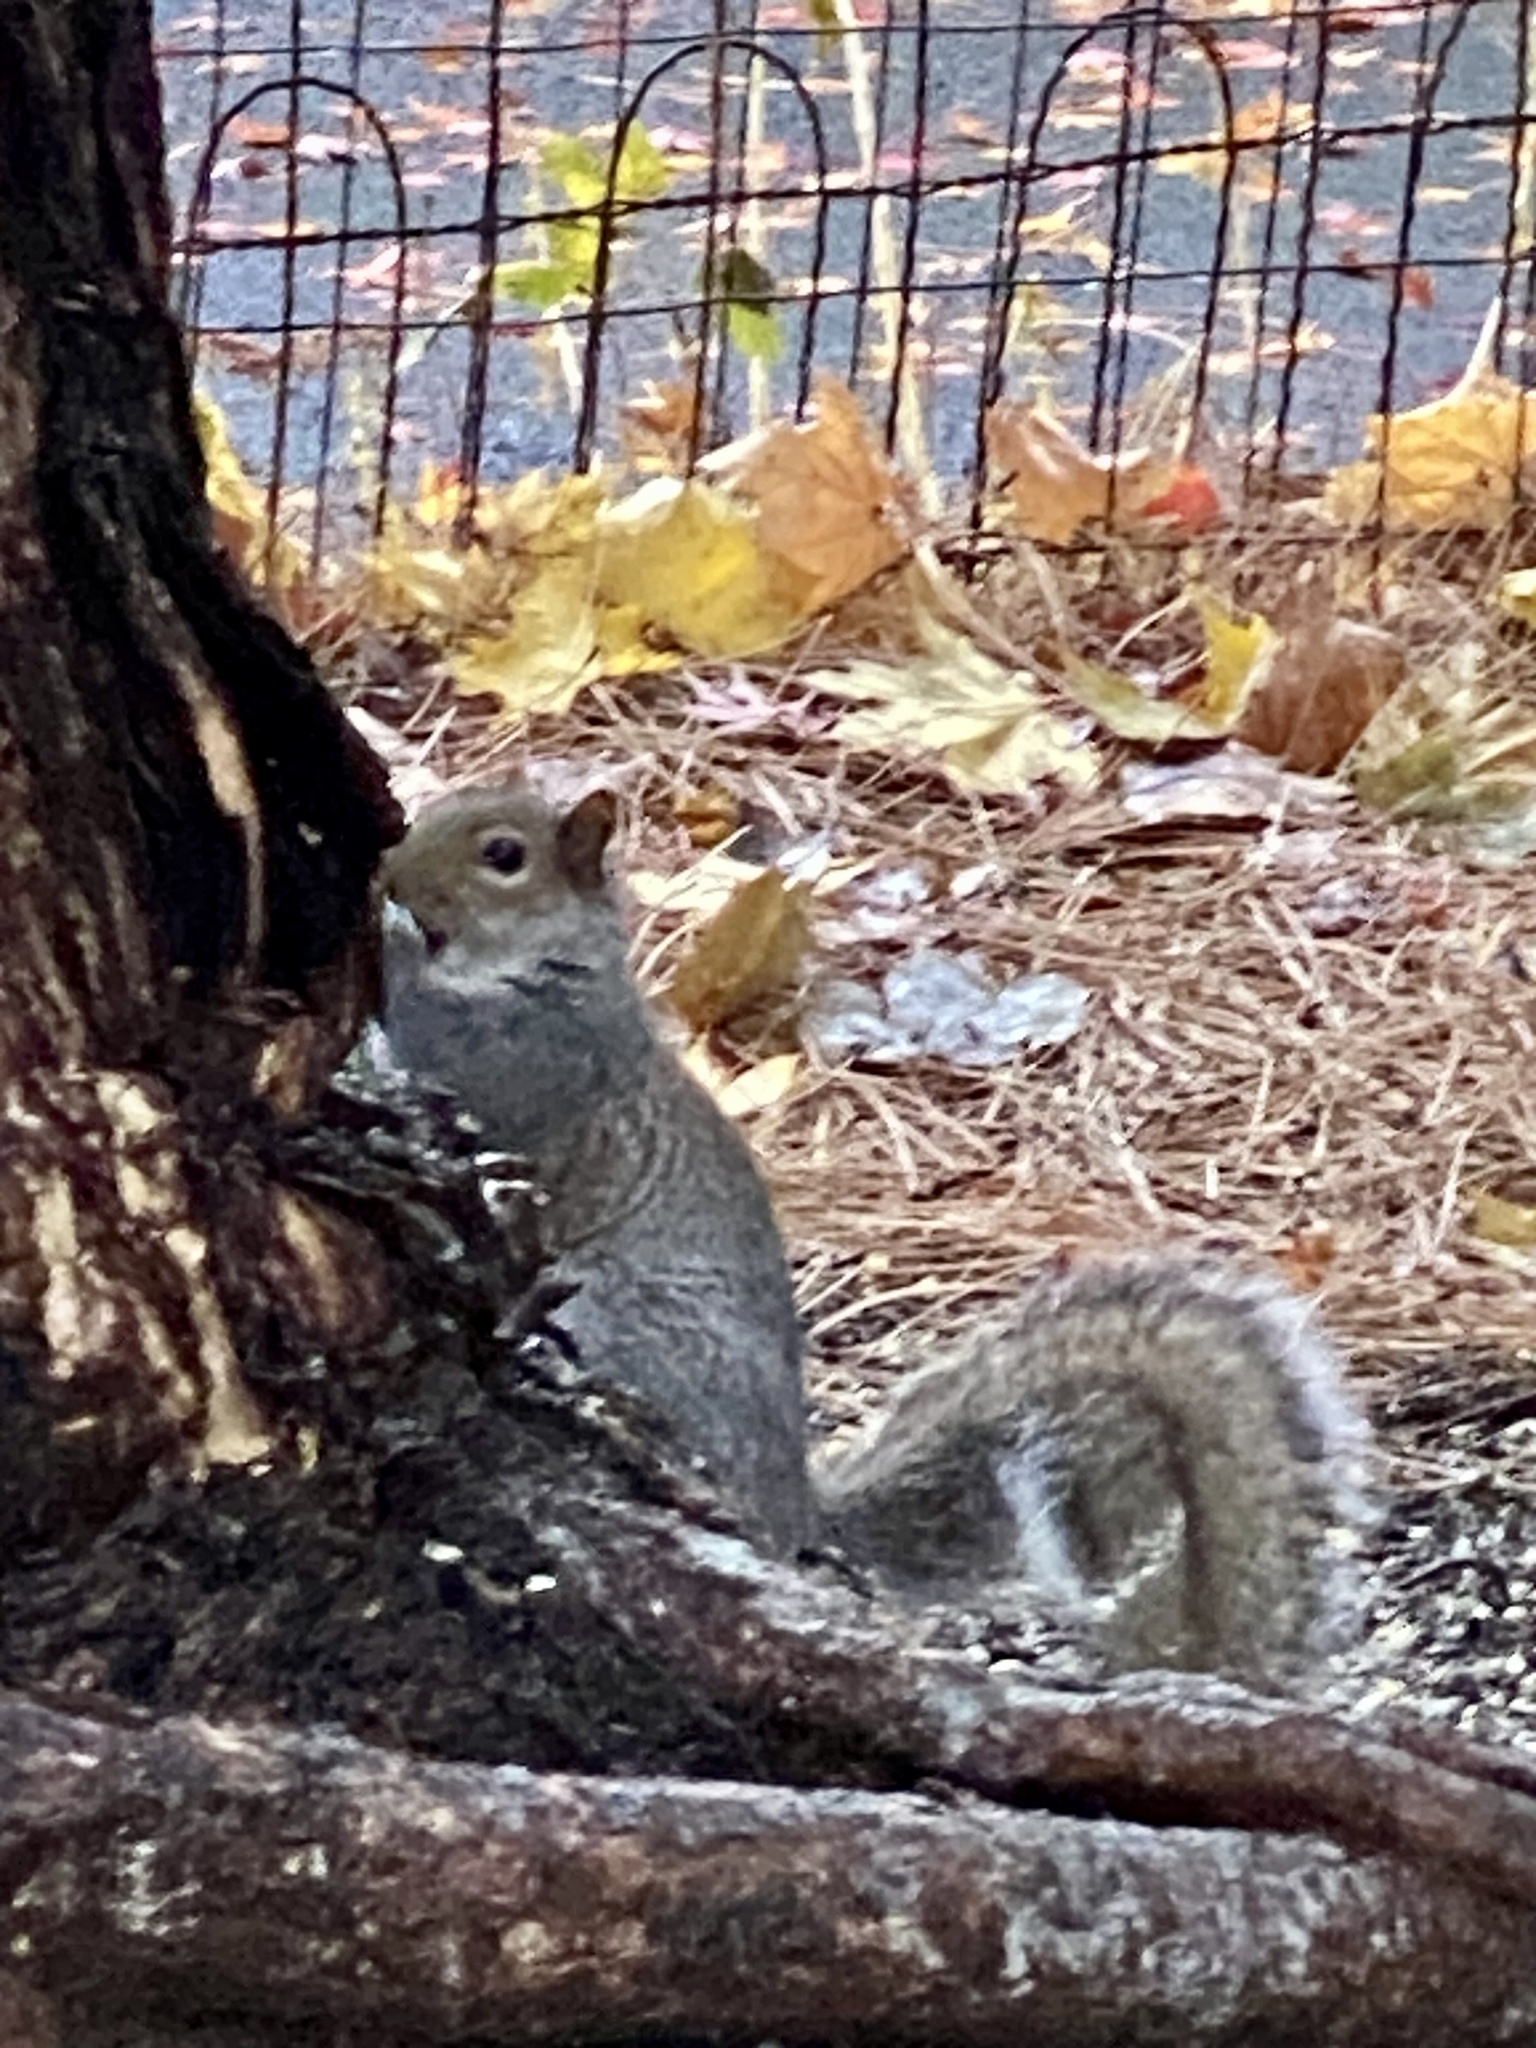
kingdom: Animalia
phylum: Chordata
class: Mammalia
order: Rodentia
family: Sciuridae
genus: Sciurus
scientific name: Sciurus carolinensis
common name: Eastern gray squirrel
